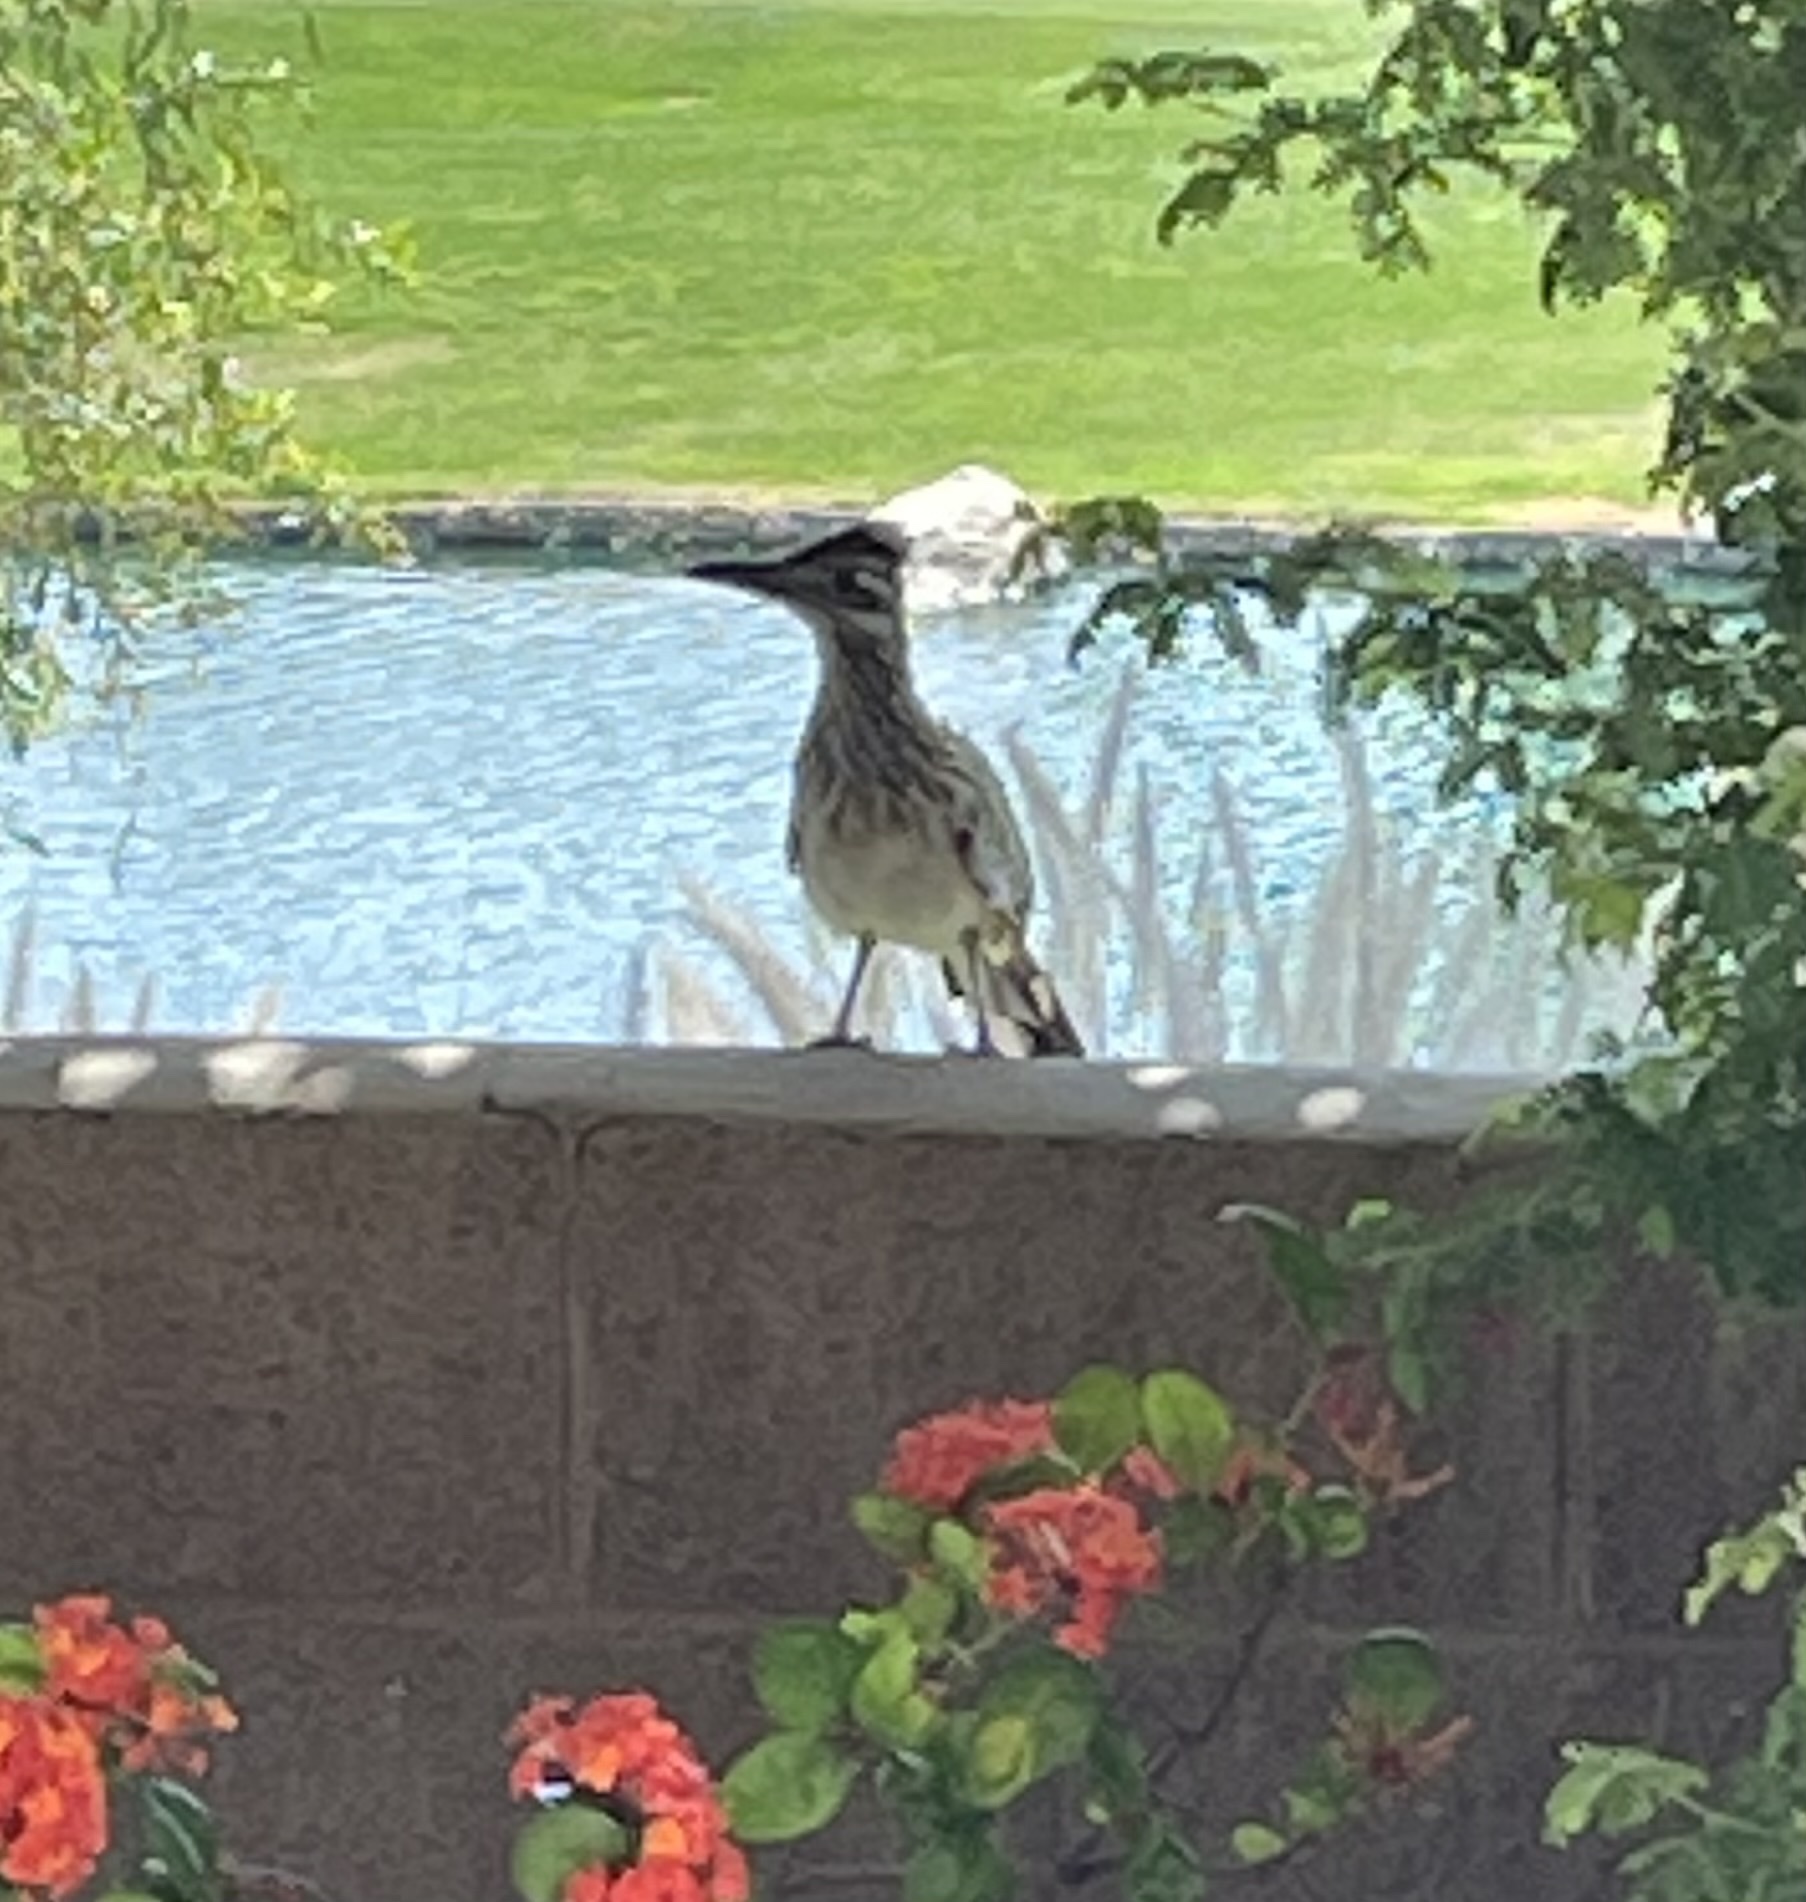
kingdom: Animalia
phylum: Chordata
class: Aves
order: Cuculiformes
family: Cuculidae
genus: Geococcyx
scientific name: Geococcyx californianus
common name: Greater roadrunner
